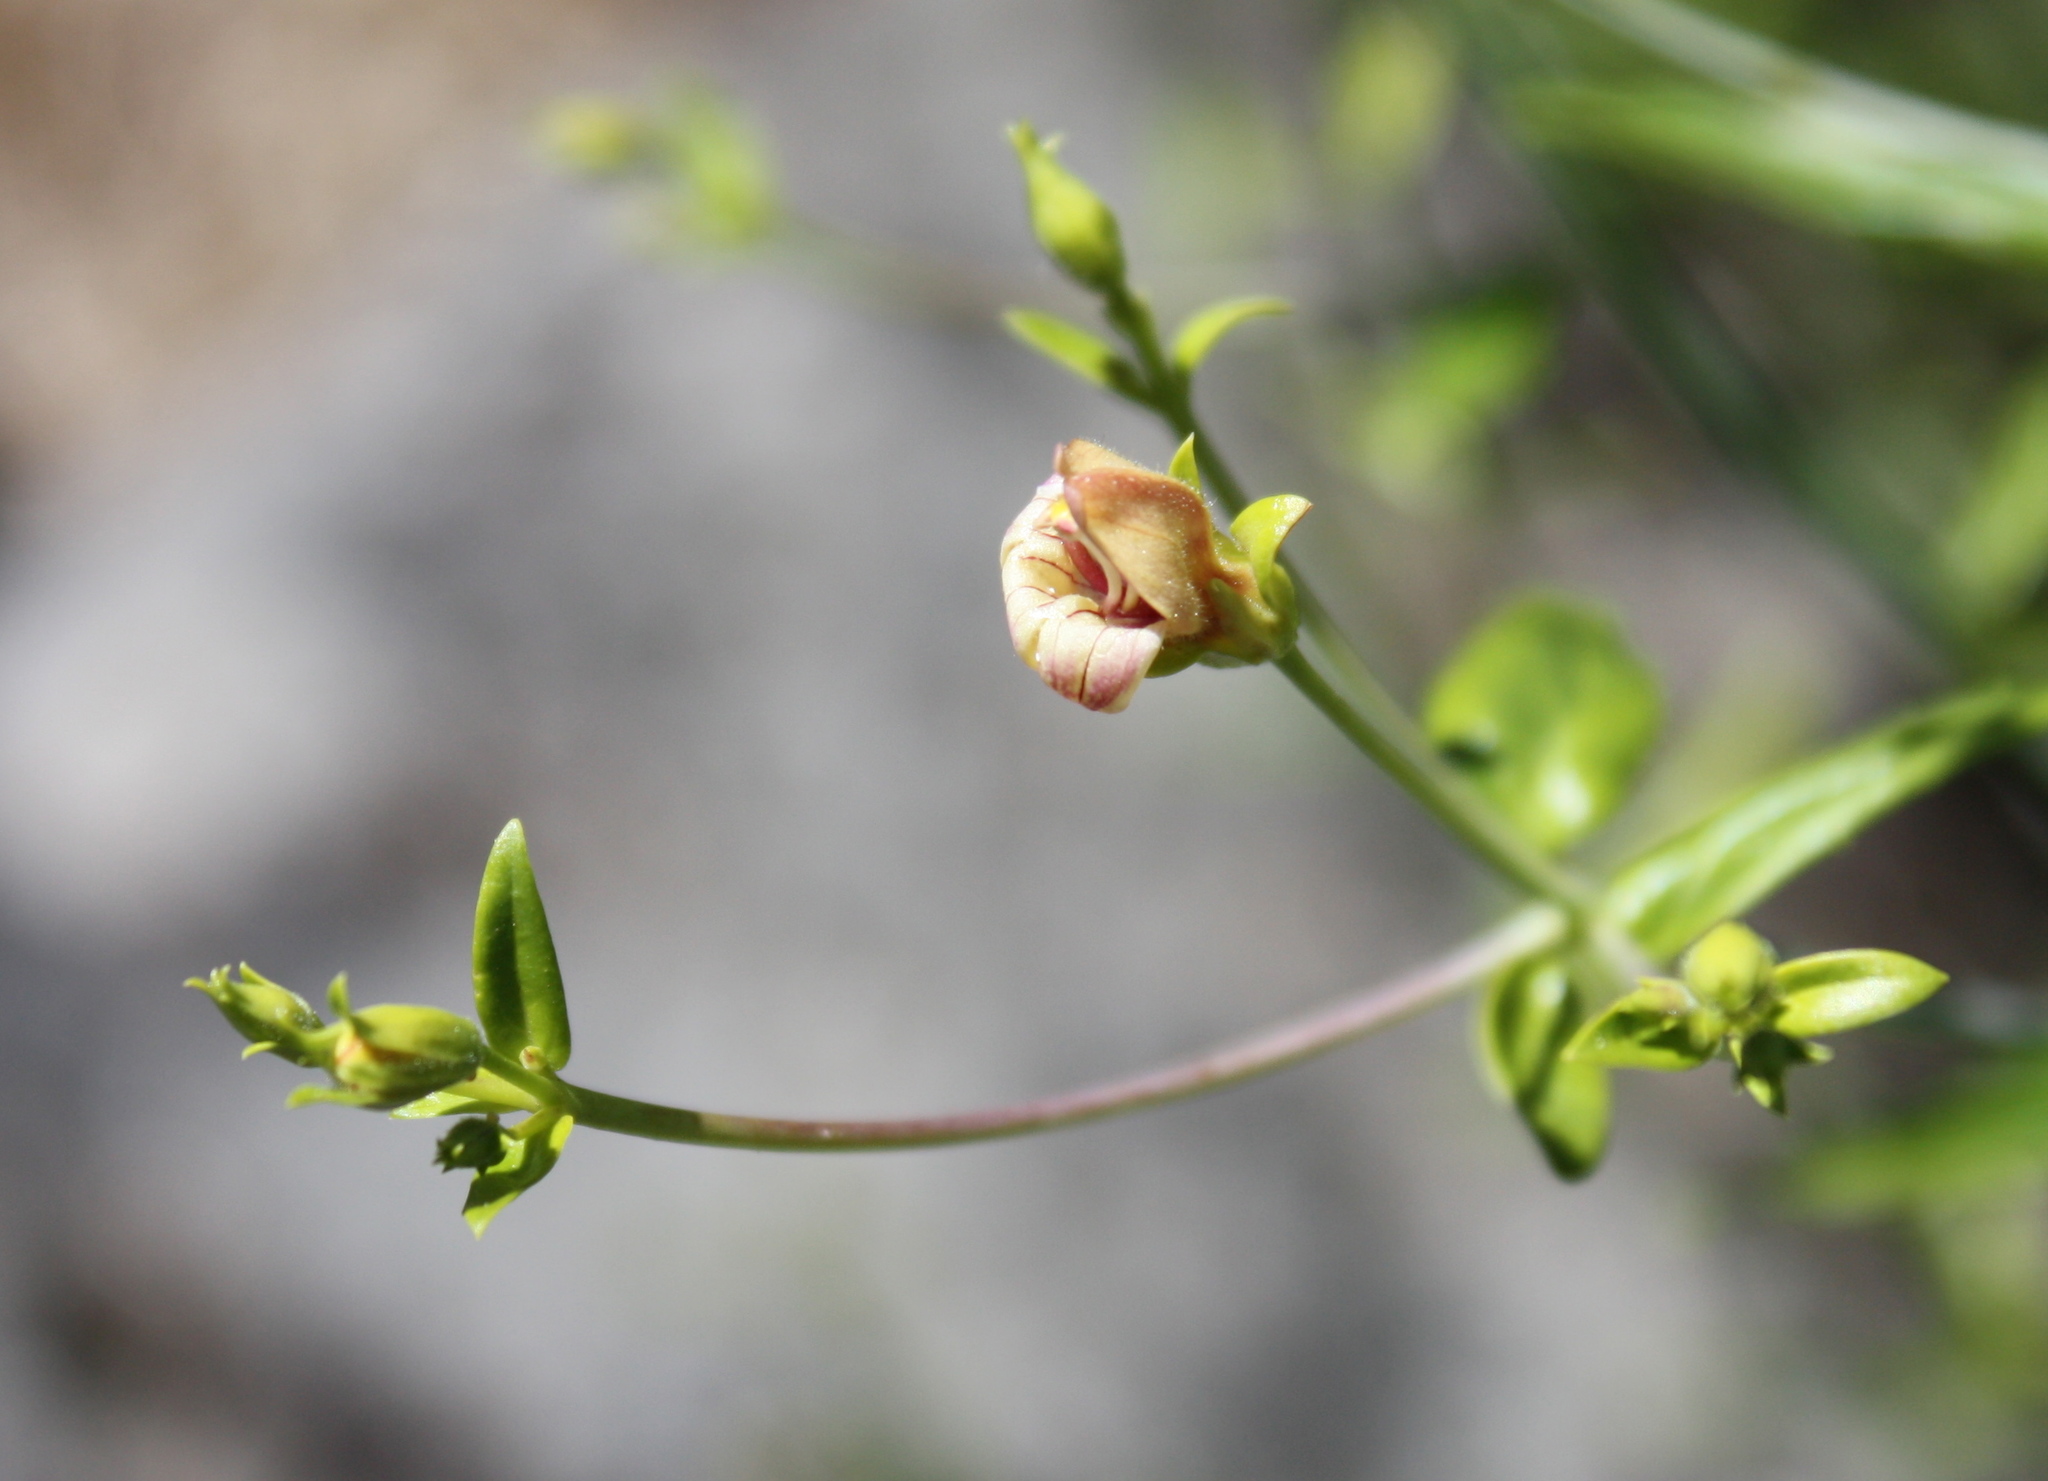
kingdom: Plantae
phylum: Tracheophyta
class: Magnoliopsida
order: Lamiales
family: Plantaginaceae
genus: Keckiella
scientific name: Keckiella lemmonii
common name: Lemmon's keckiella
